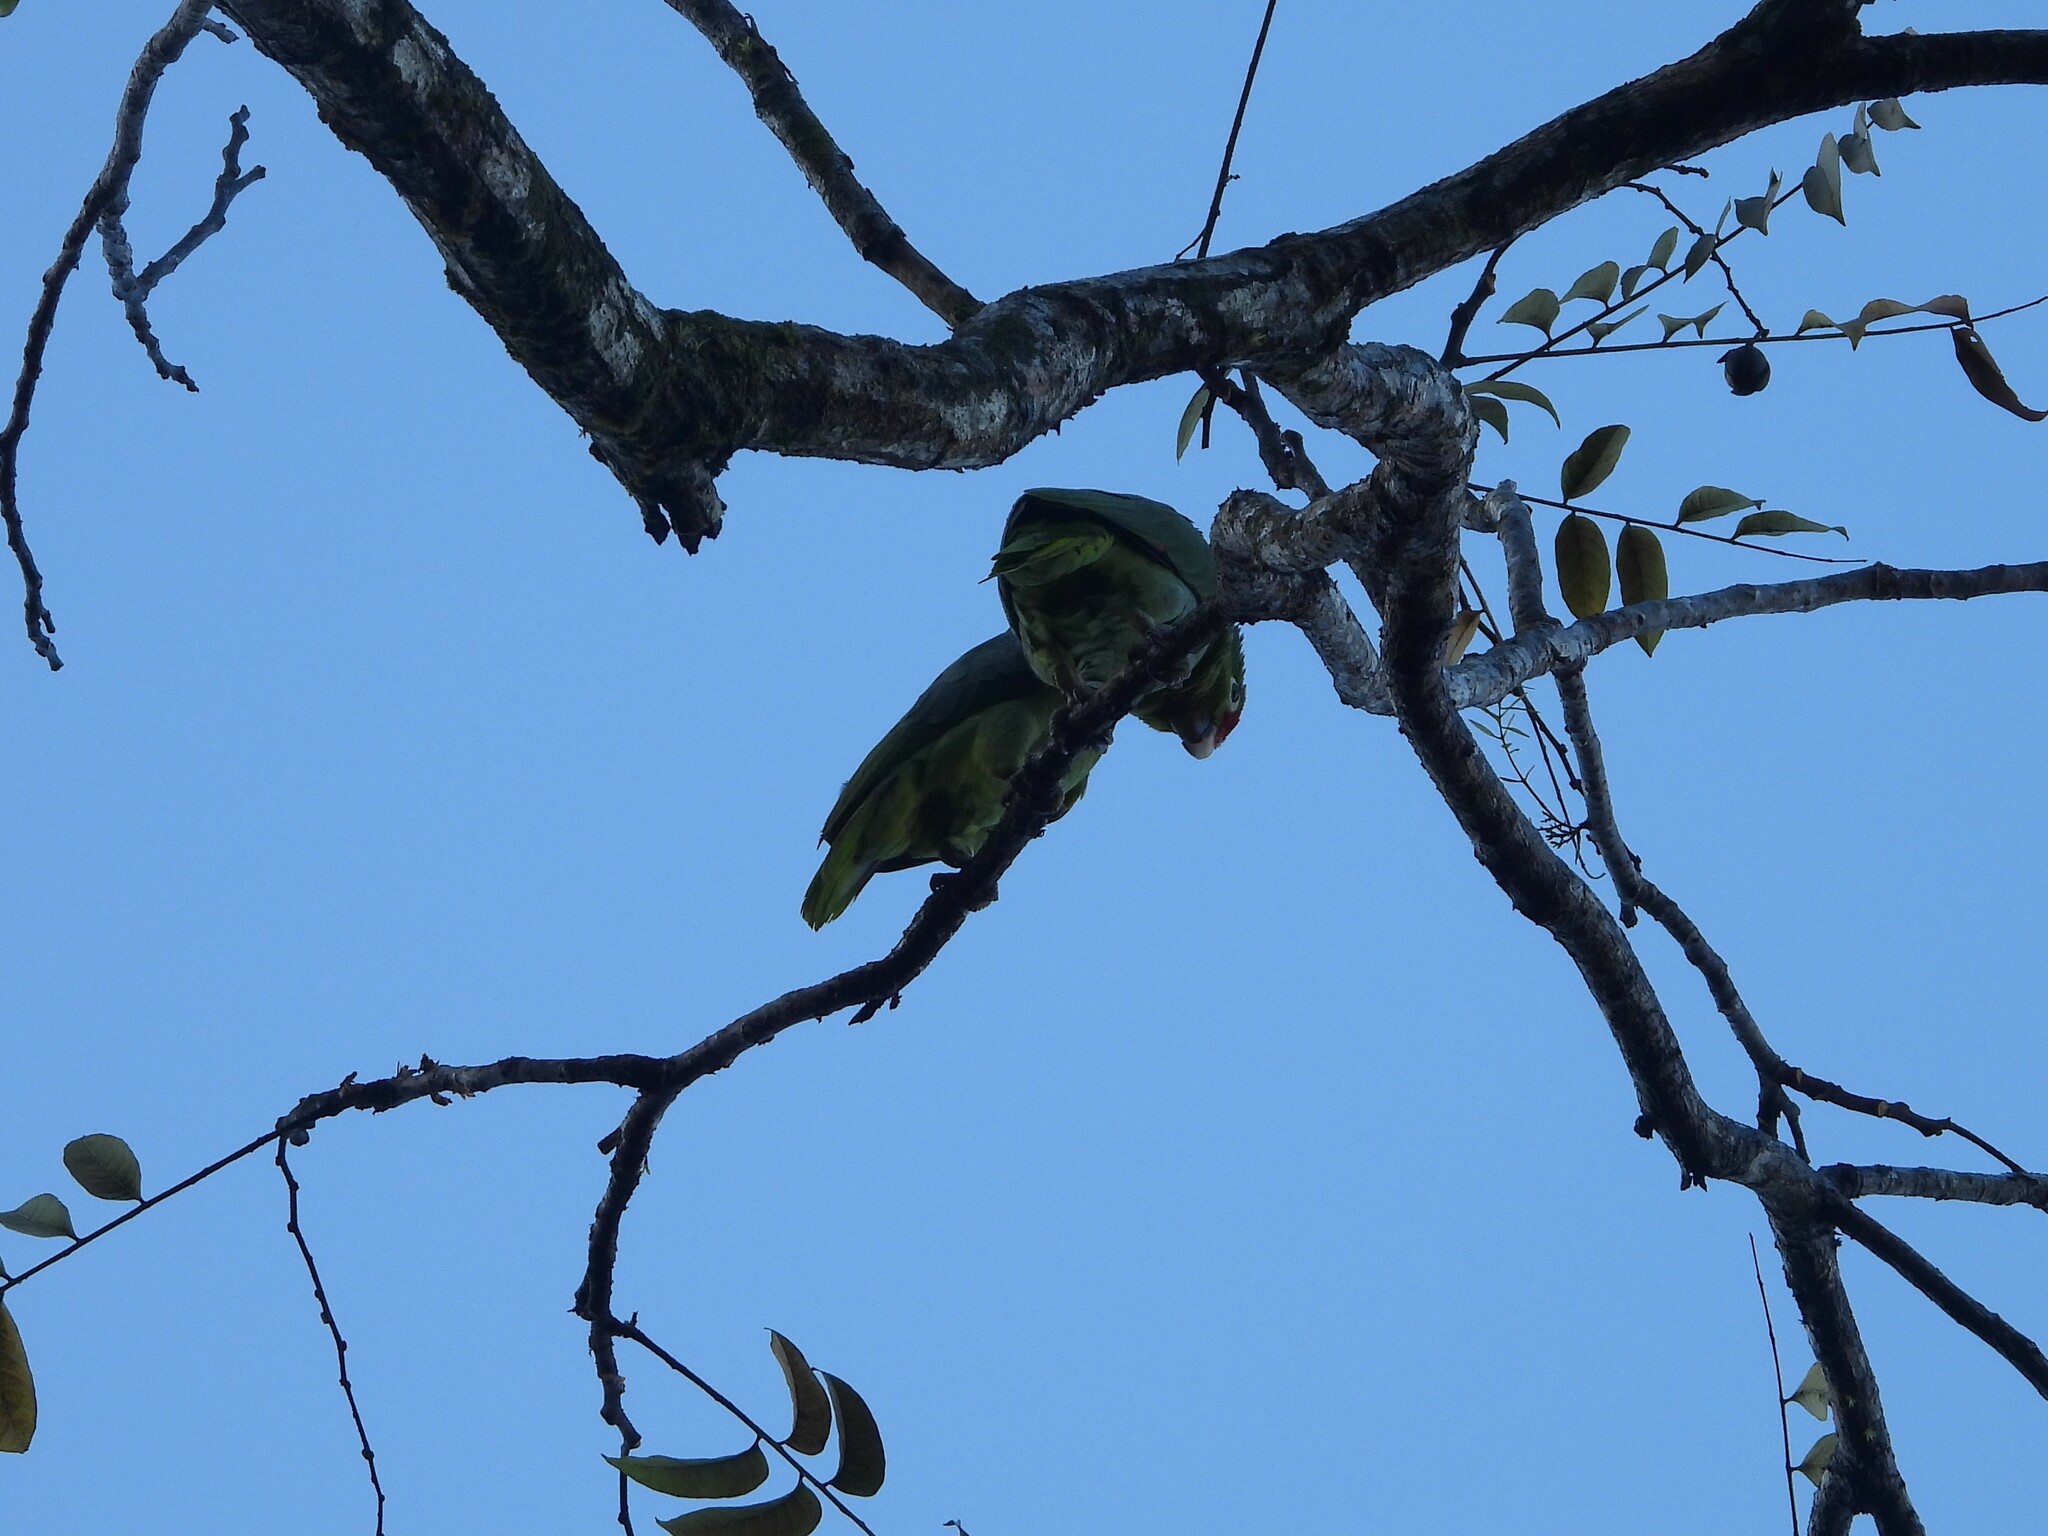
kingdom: Animalia
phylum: Chordata
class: Aves
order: Psittaciformes
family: Psittacidae
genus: Amazona
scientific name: Amazona autumnalis
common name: Red-lored amazon
